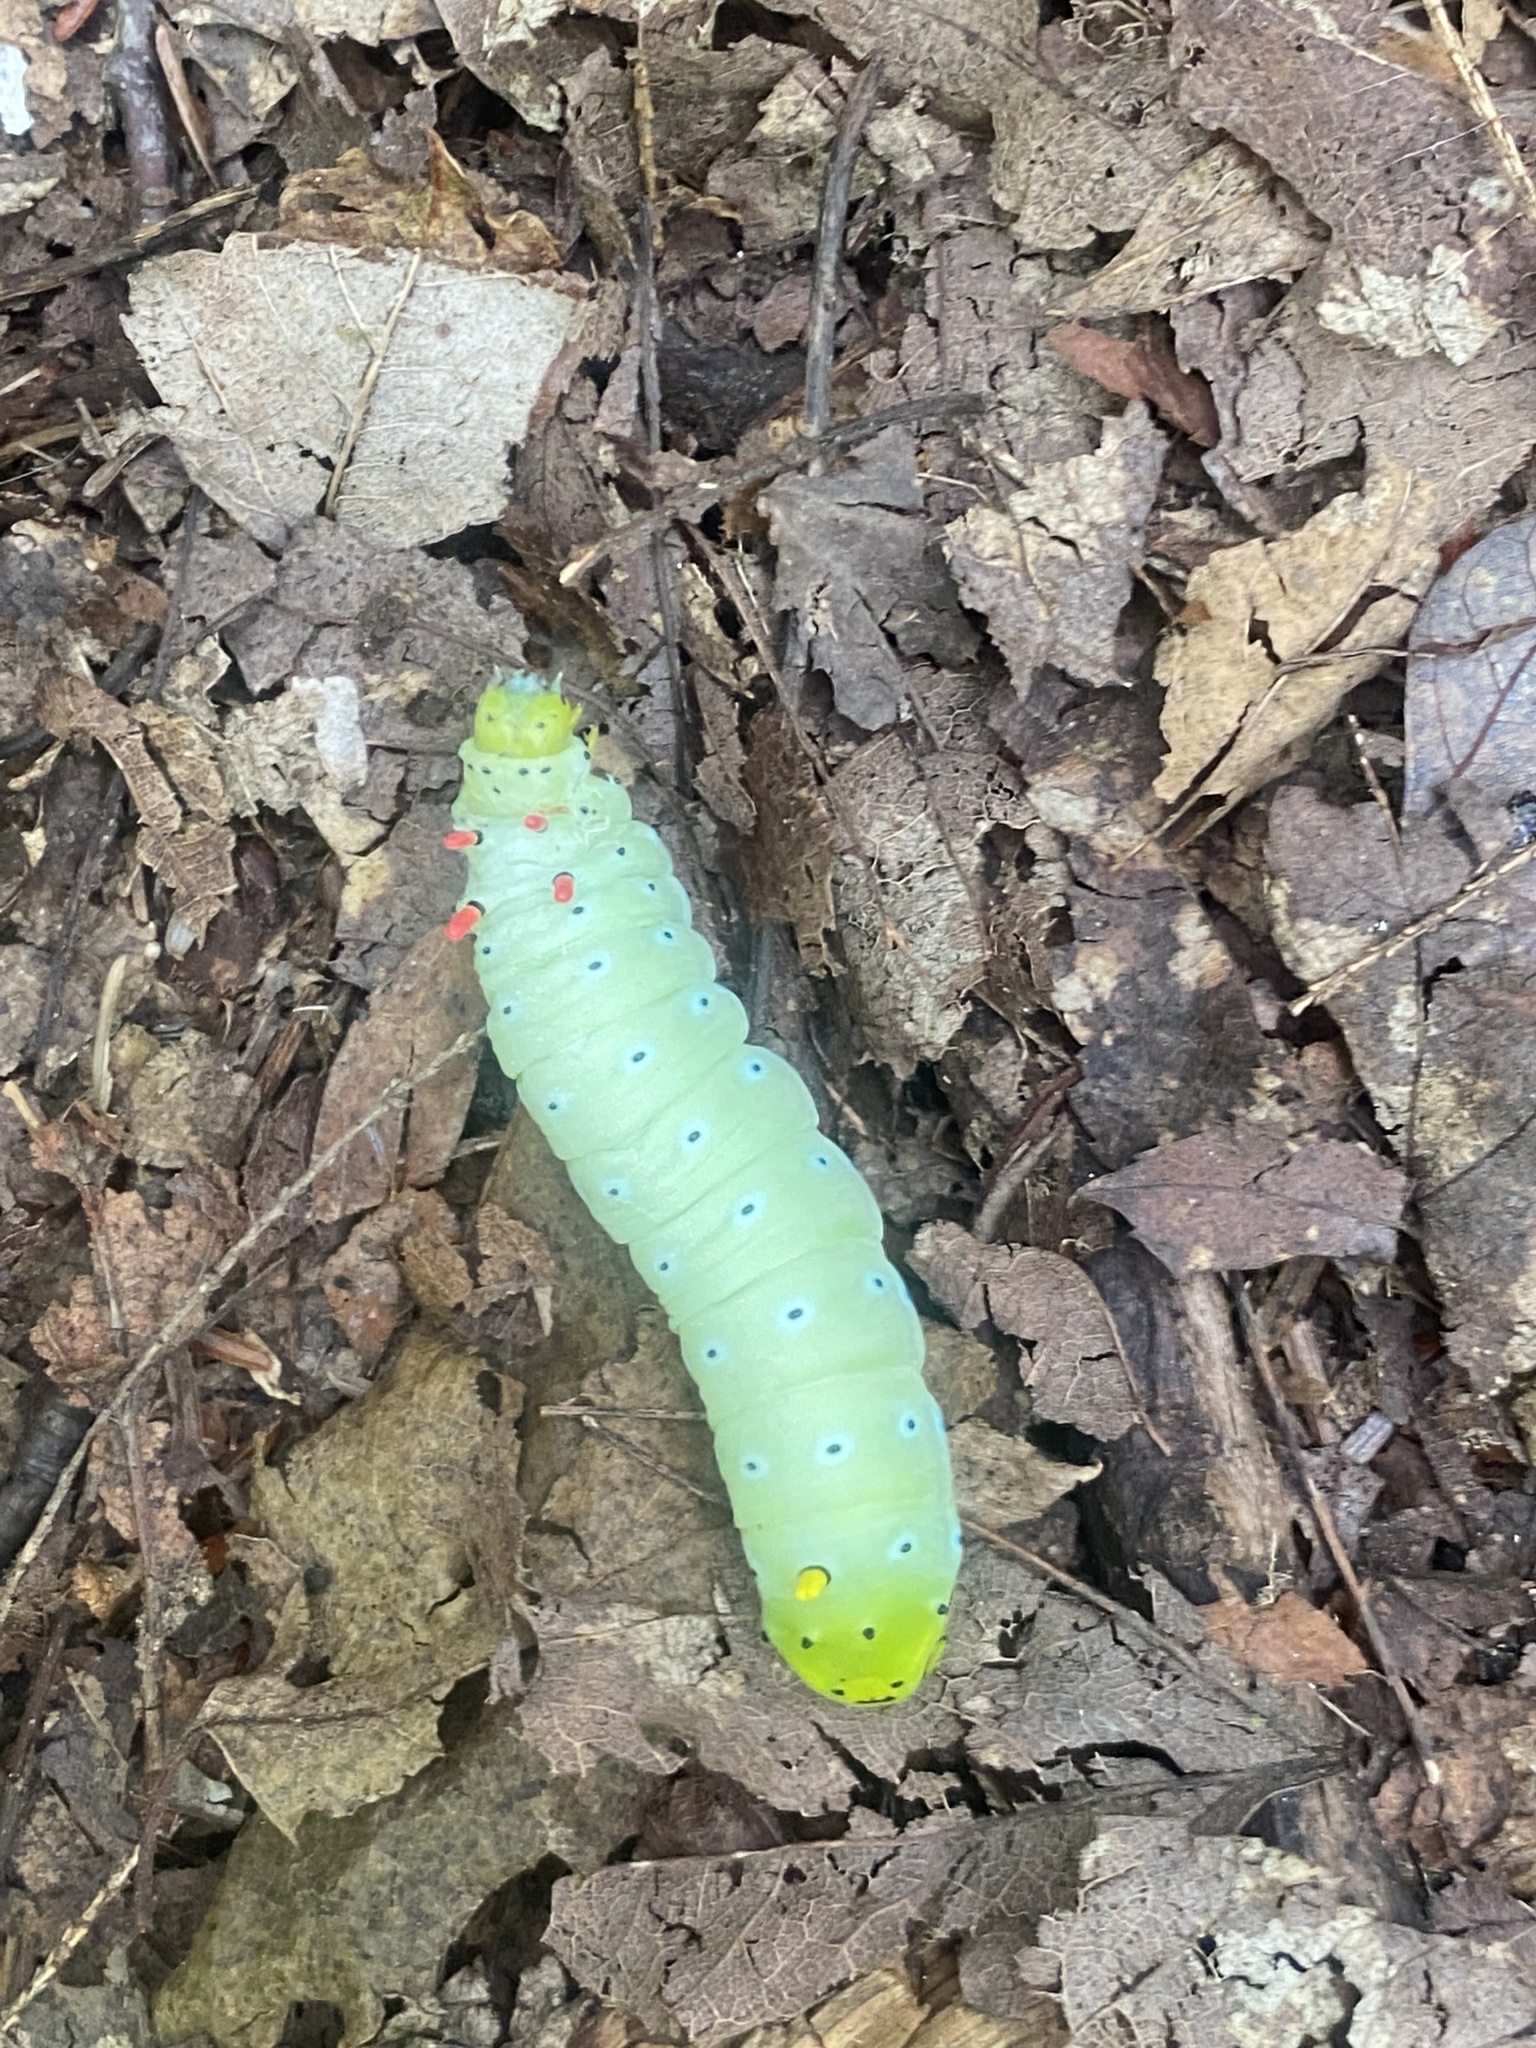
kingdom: Animalia
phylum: Arthropoda
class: Insecta
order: Lepidoptera
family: Saturniidae
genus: Callosamia
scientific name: Callosamia promethea
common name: Promethea silkmoth
